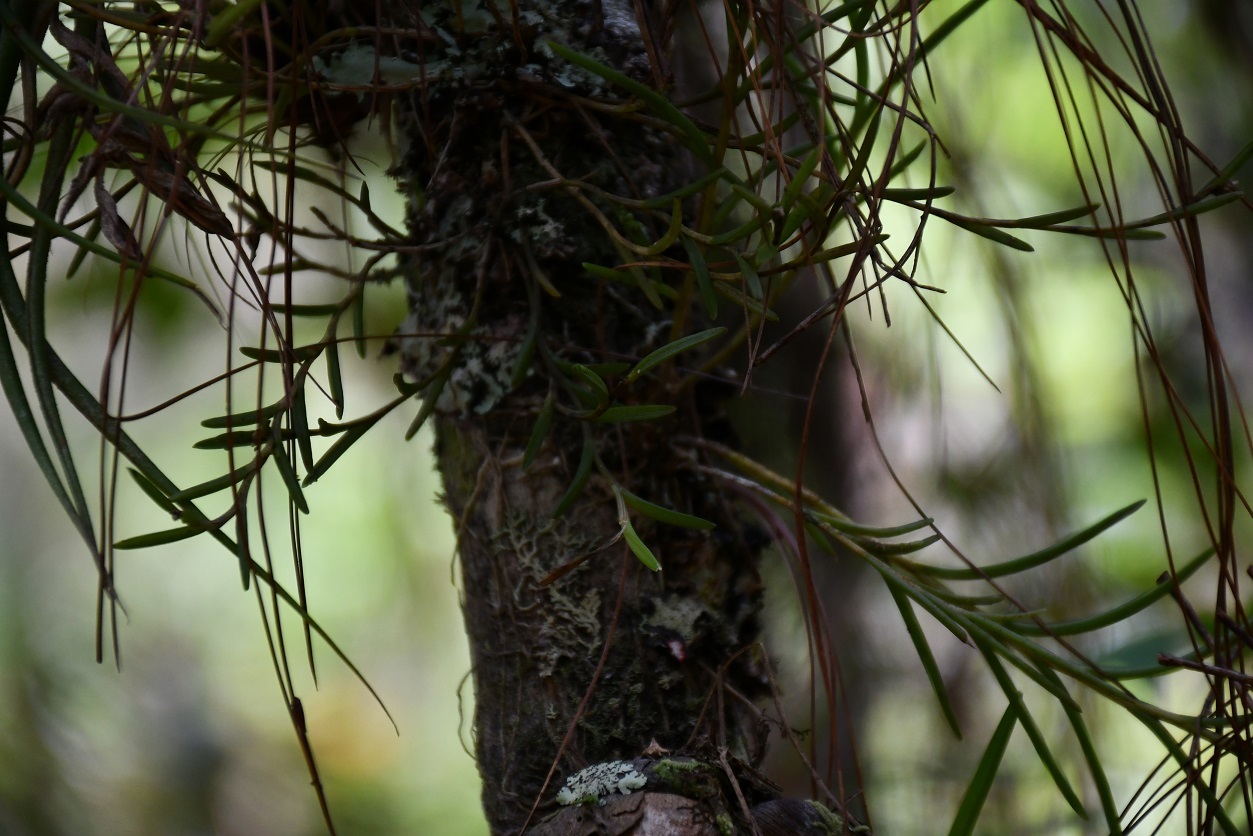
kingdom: Plantae
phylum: Tracheophyta
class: Liliopsida
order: Asparagales
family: Orchidaceae
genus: Jacquiniella
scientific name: Jacquiniella leucomelana
